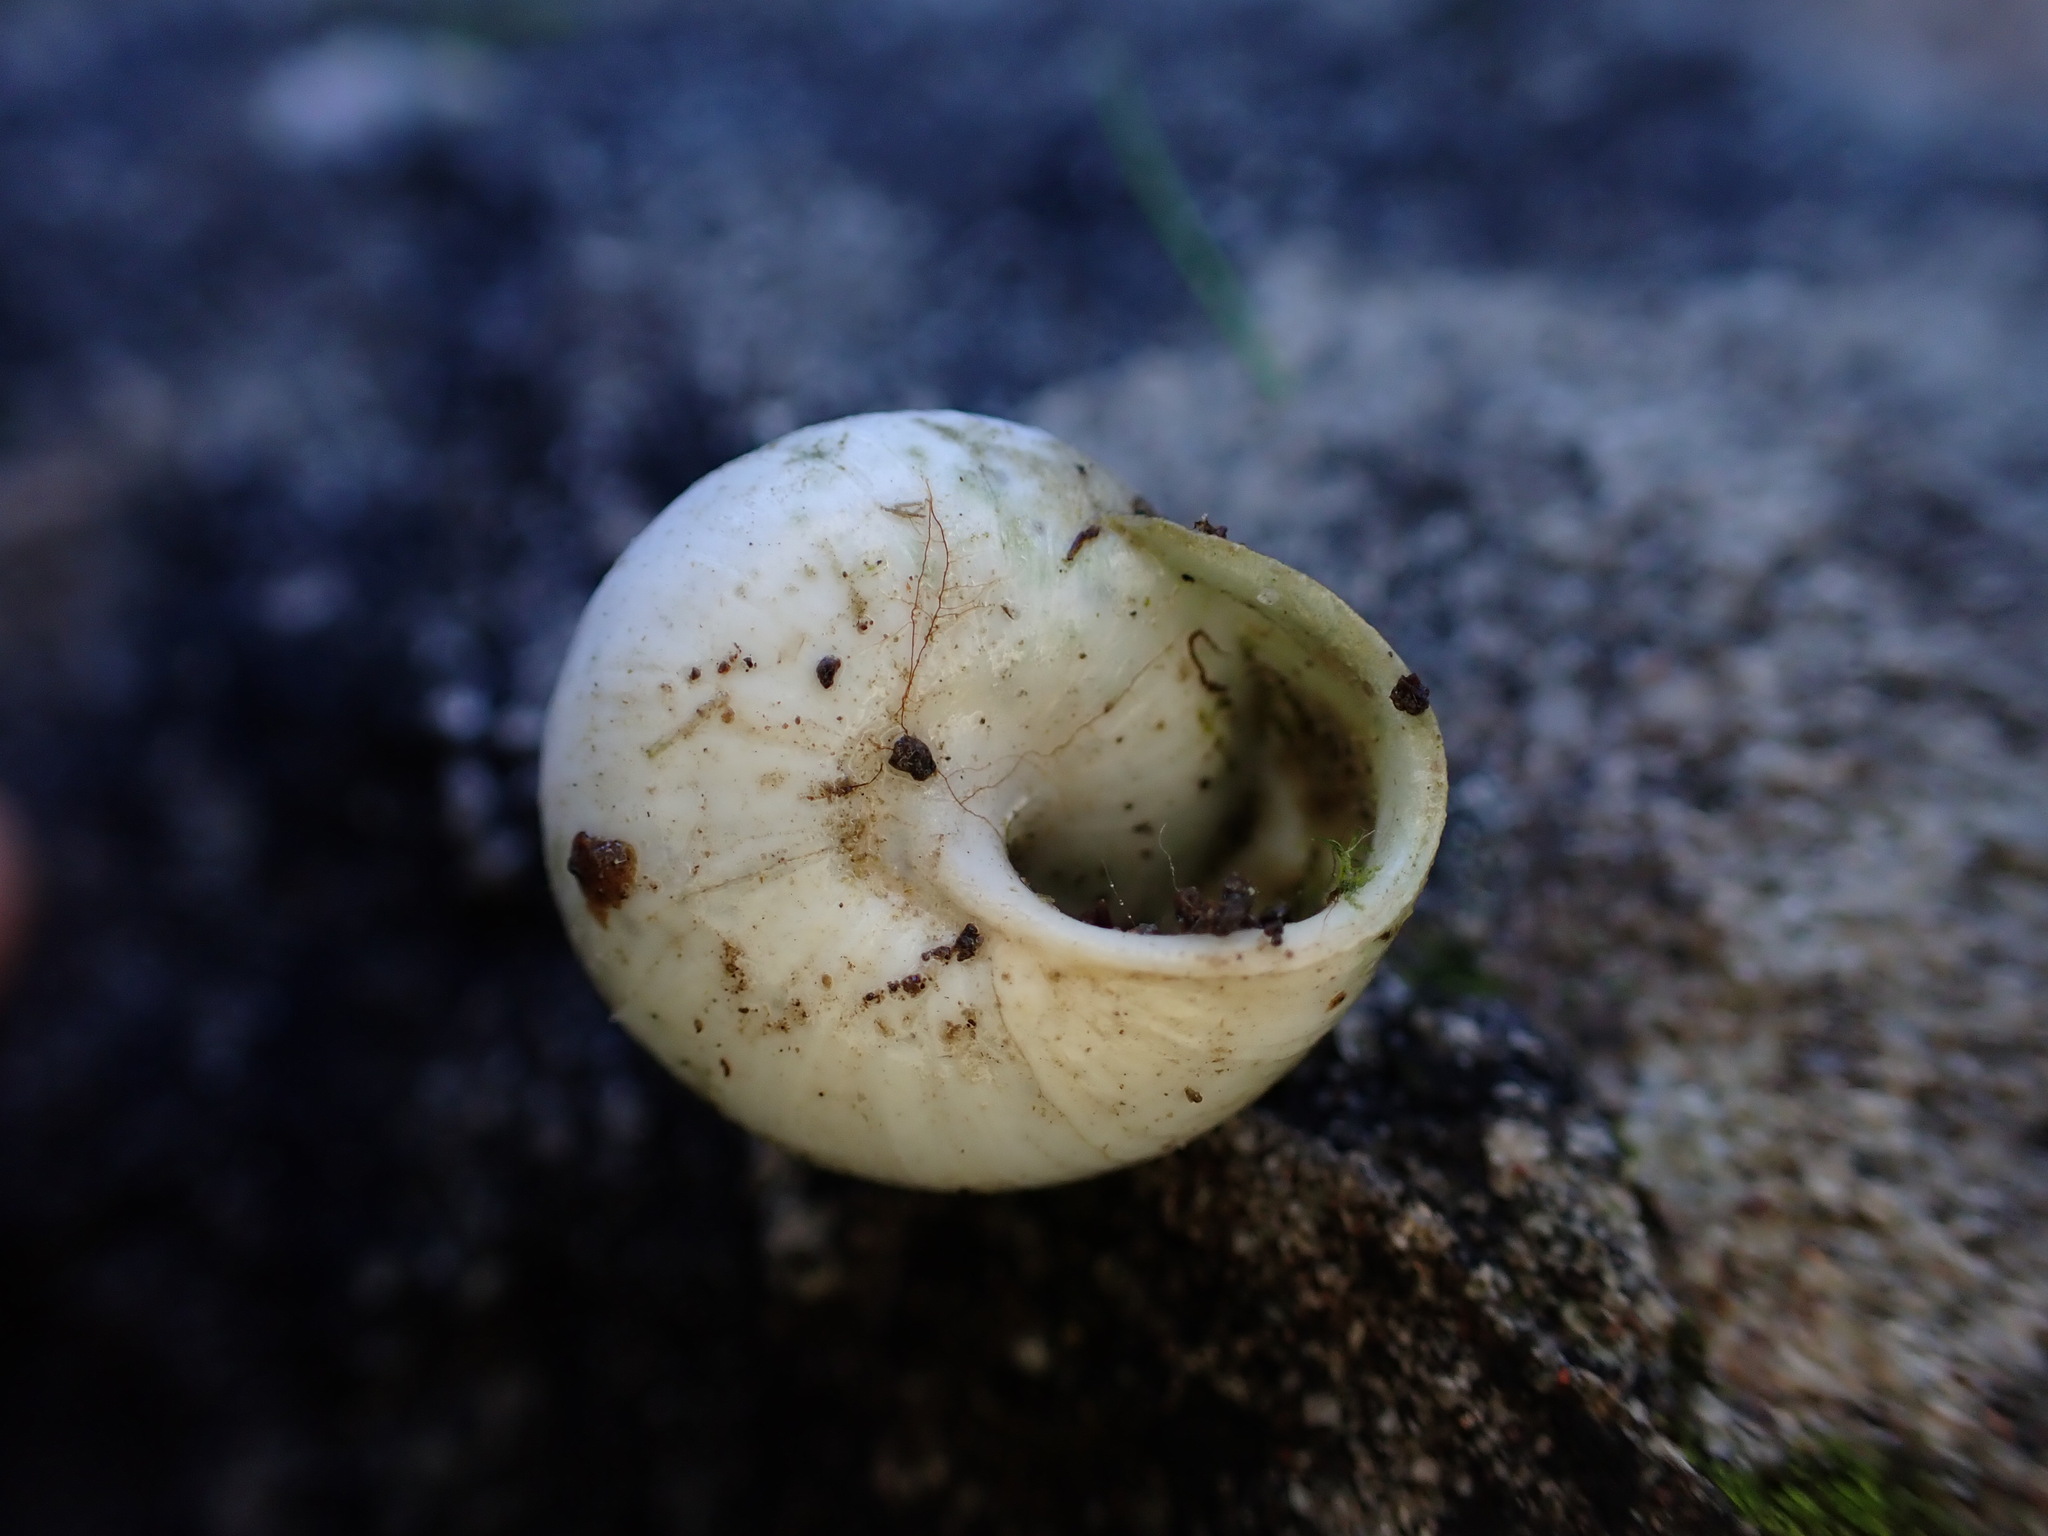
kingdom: Animalia
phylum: Mollusca
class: Gastropoda
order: Stylommatophora
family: Sphincterochilidae
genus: Sphincterochila
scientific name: Sphincterochila candidissima
